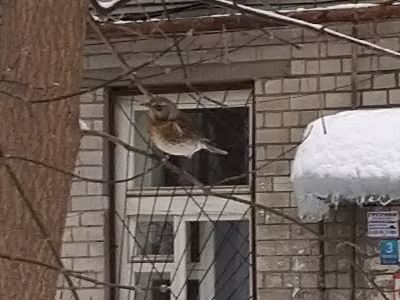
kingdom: Animalia
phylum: Chordata
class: Aves
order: Passeriformes
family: Turdidae
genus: Turdus
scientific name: Turdus pilaris
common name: Fieldfare
